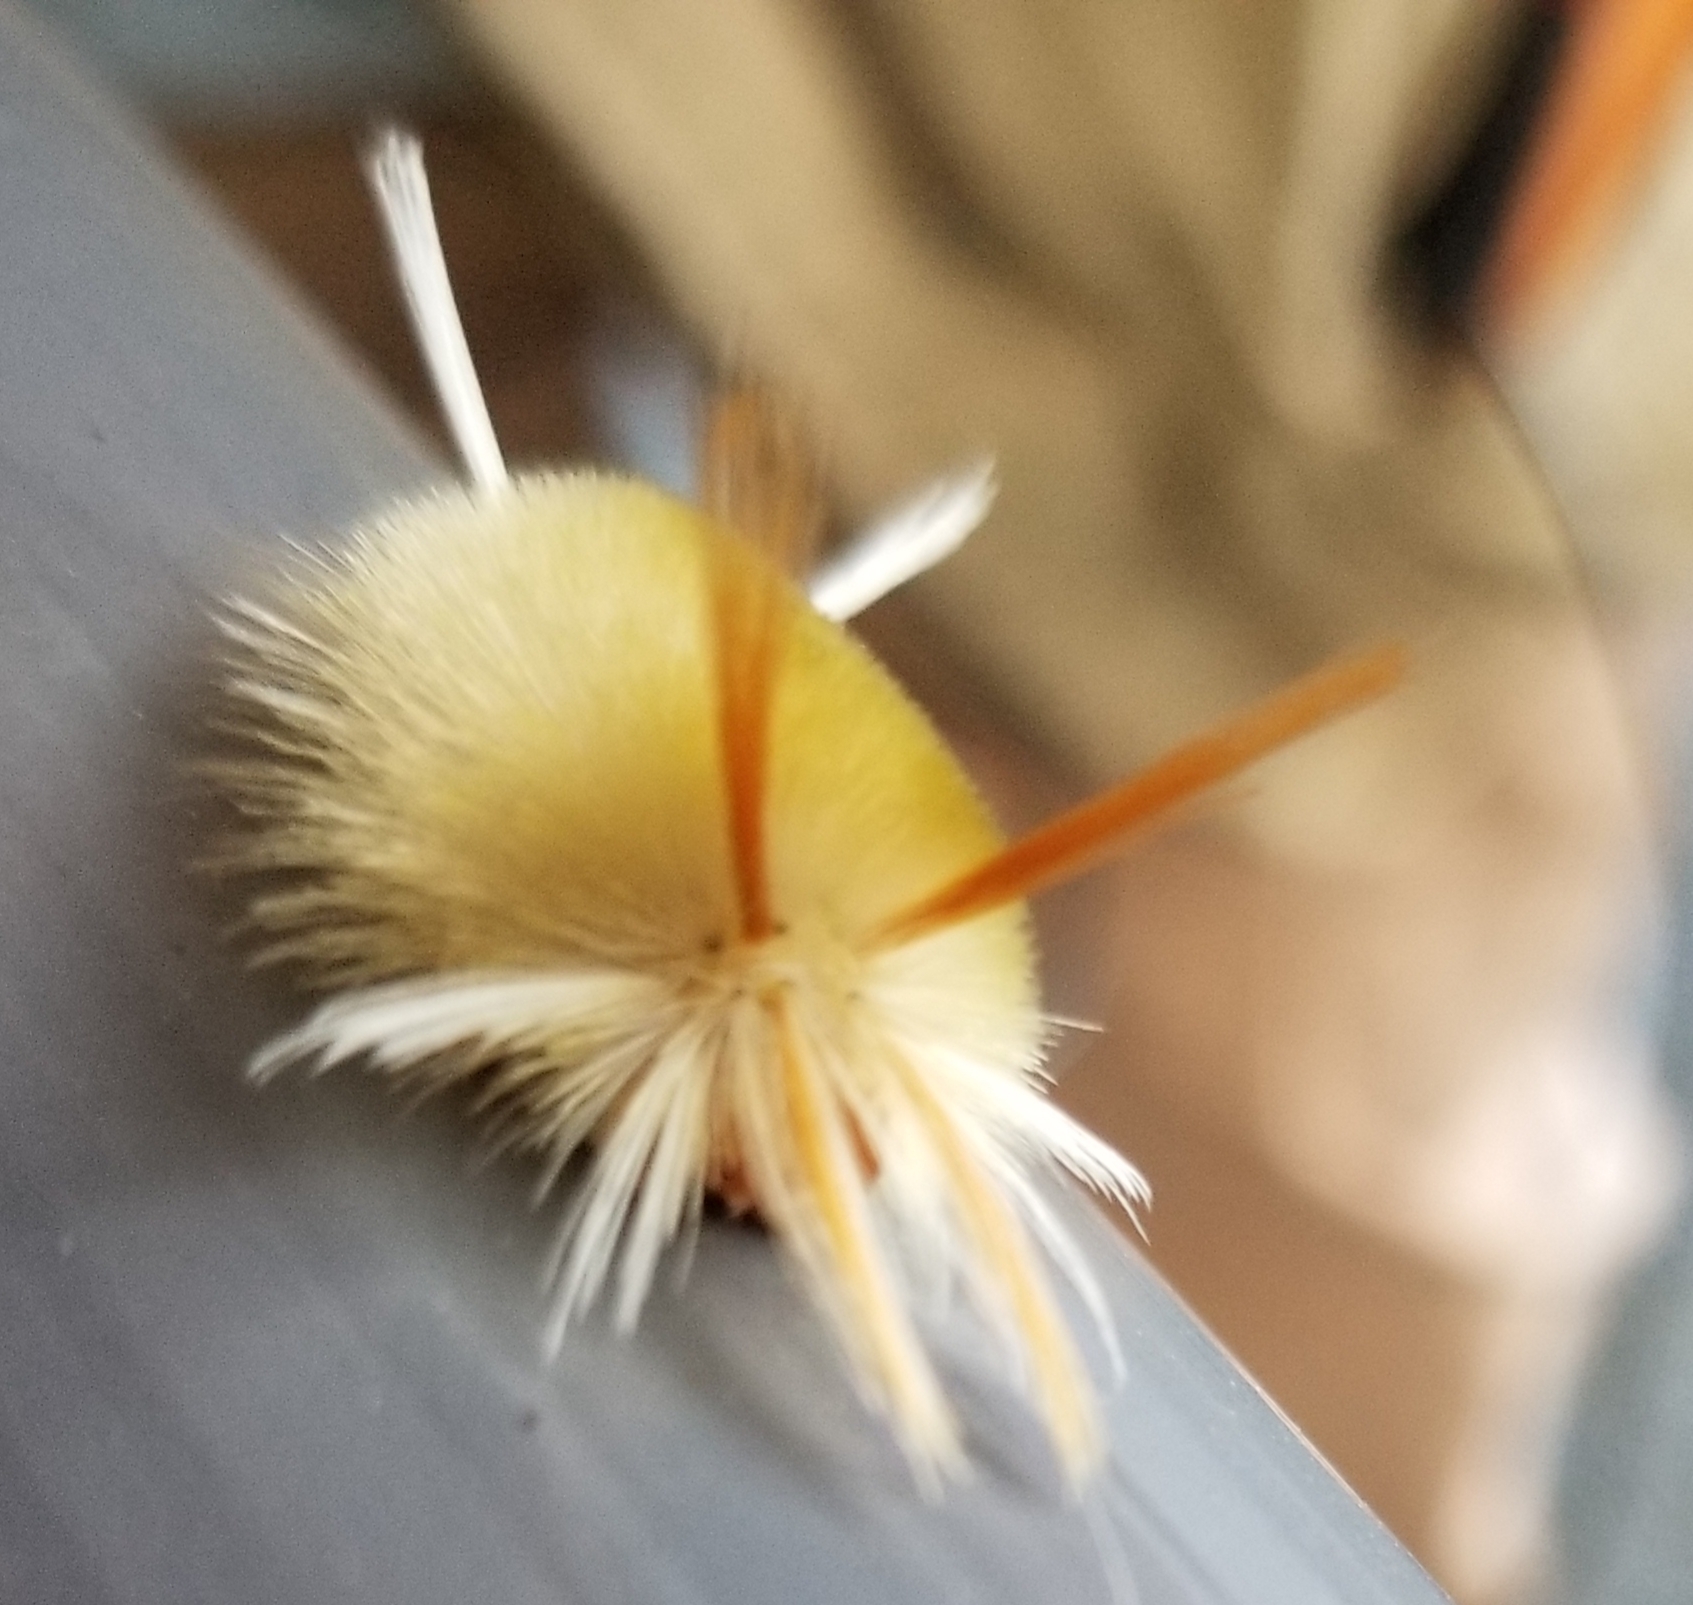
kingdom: Animalia
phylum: Arthropoda
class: Insecta
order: Lepidoptera
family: Erebidae
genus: Halysidota
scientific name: Halysidota harrisii
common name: Sycamore tussock moth
